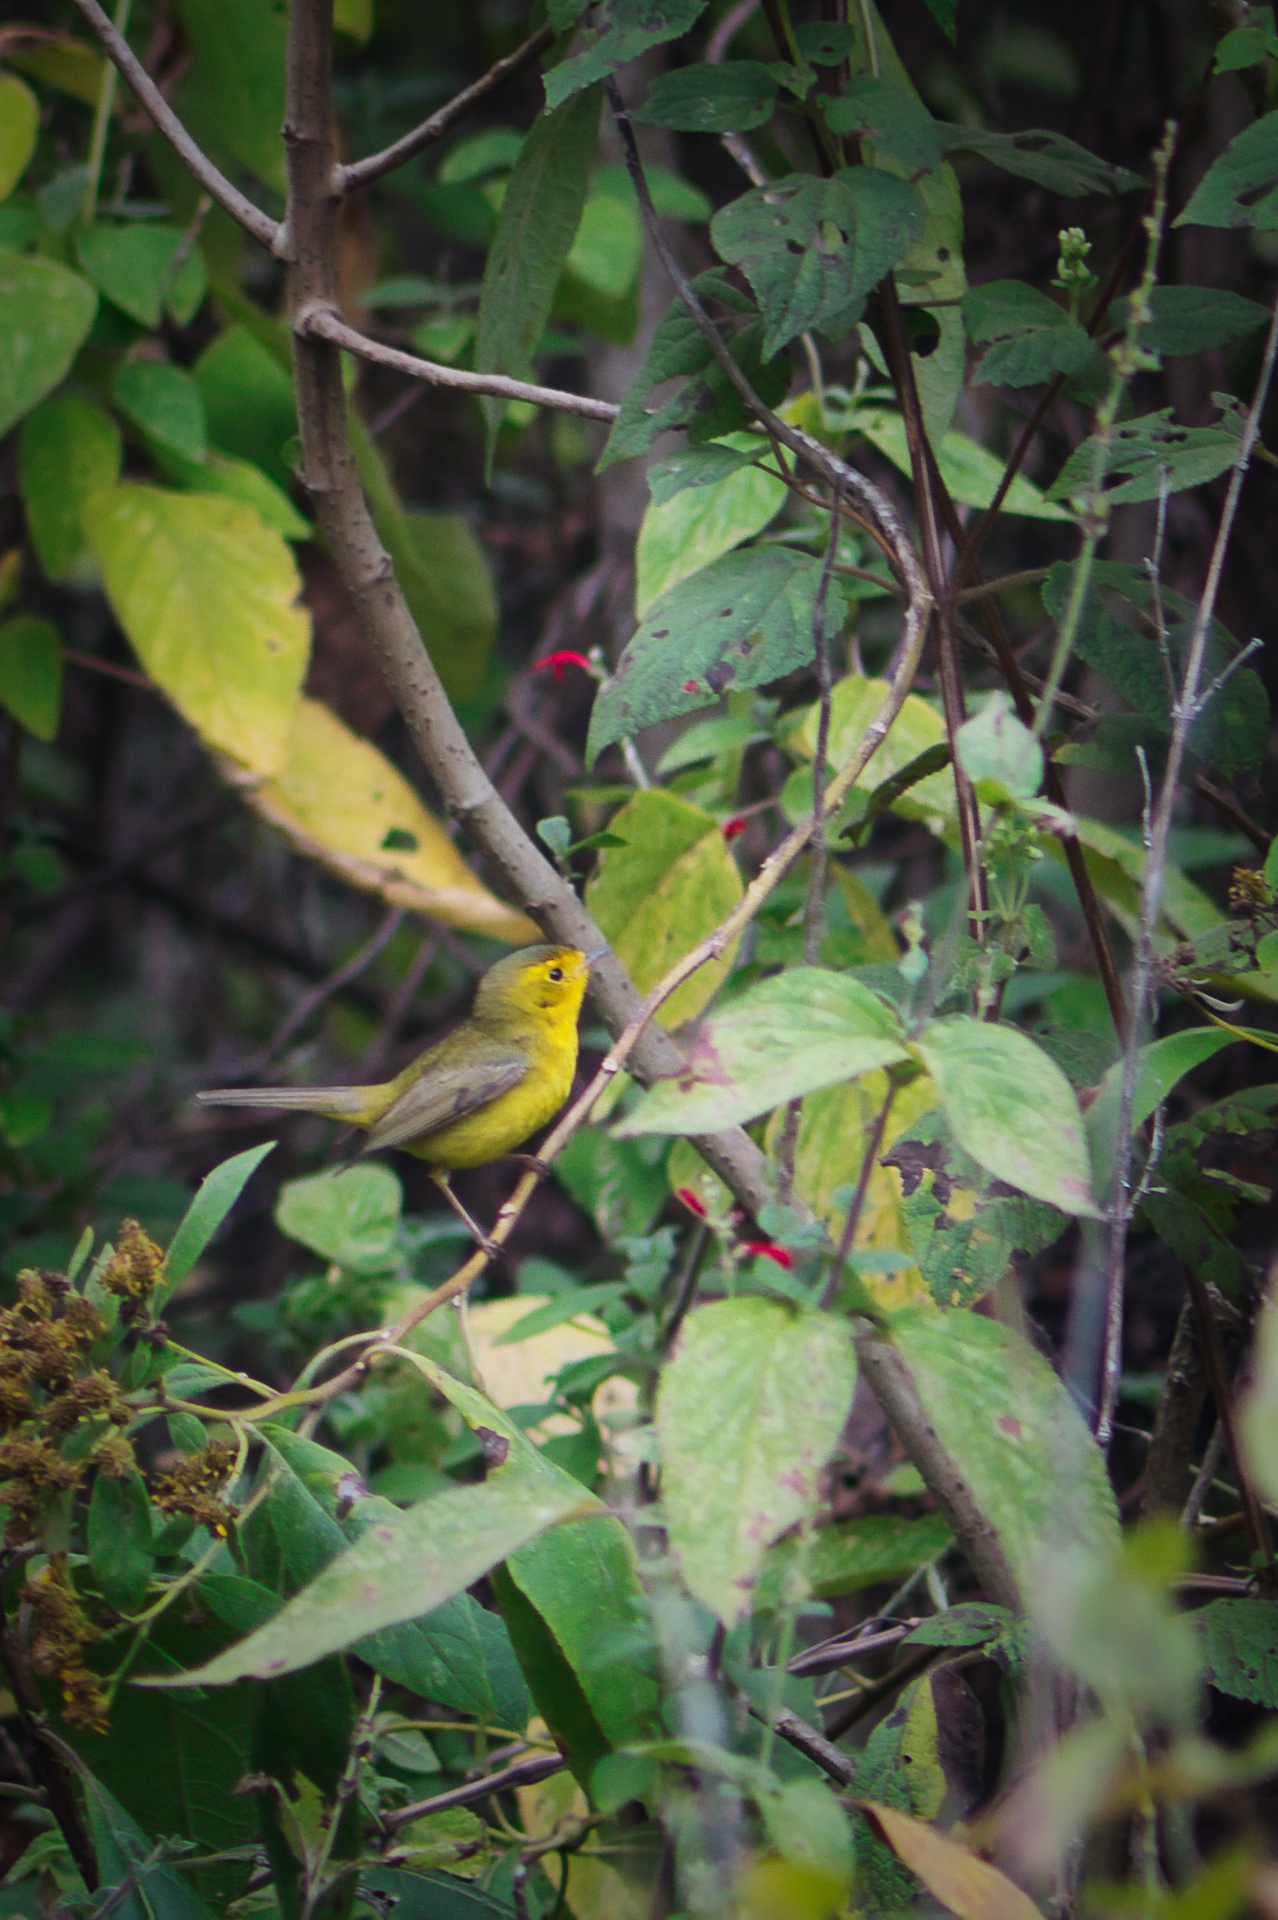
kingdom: Animalia
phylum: Chordata
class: Aves
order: Passeriformes
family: Parulidae
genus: Cardellina
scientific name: Cardellina pusilla
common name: Wilson's warbler
